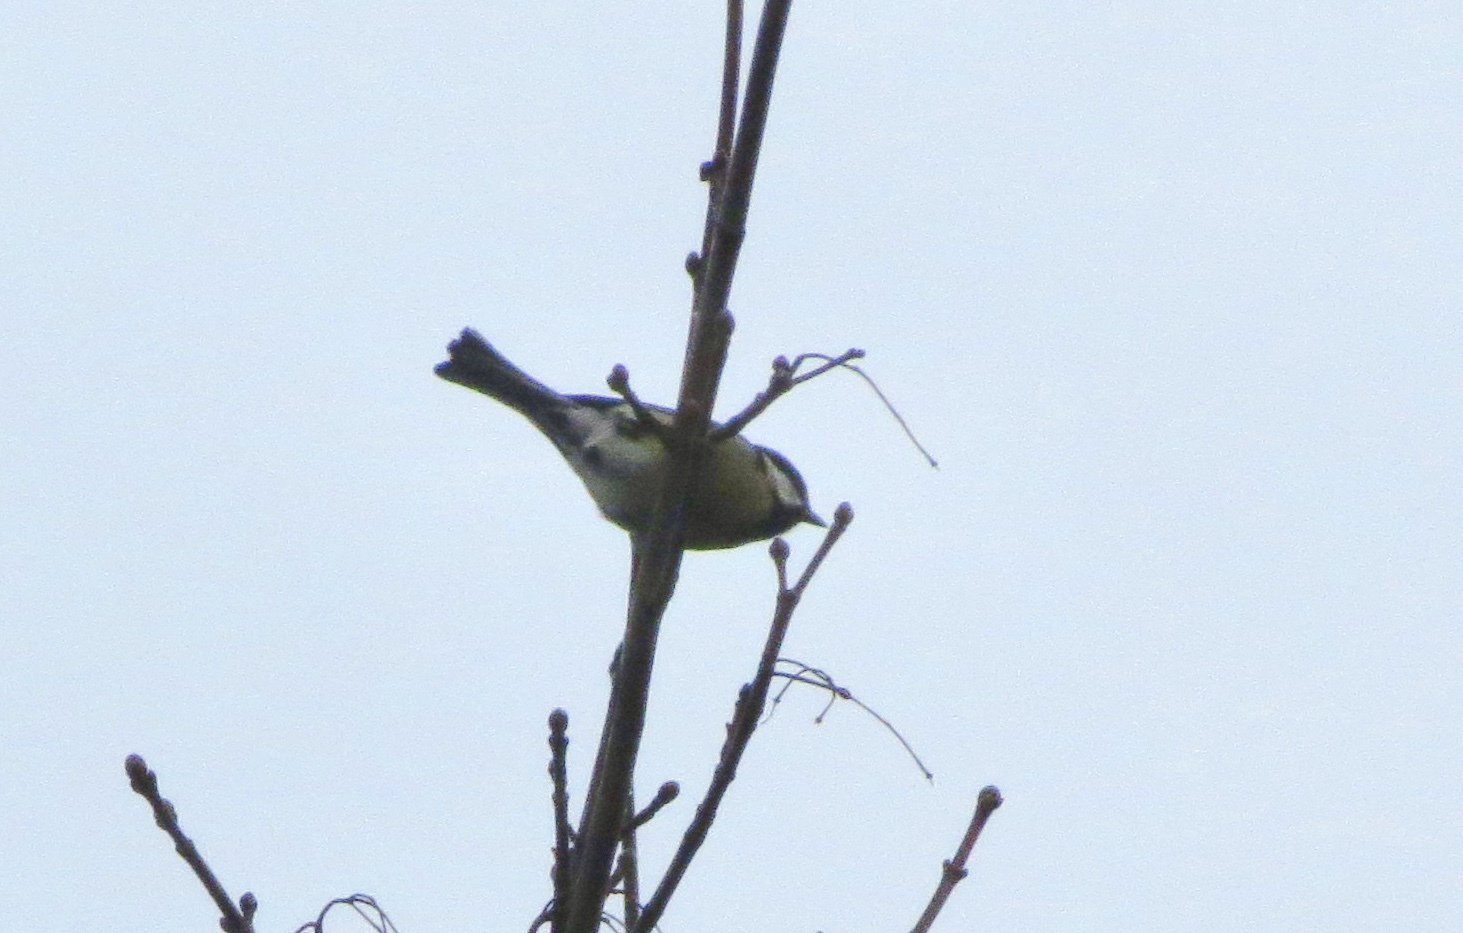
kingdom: Animalia
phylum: Chordata
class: Aves
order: Passeriformes
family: Paridae
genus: Parus
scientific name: Parus major
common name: Great tit
